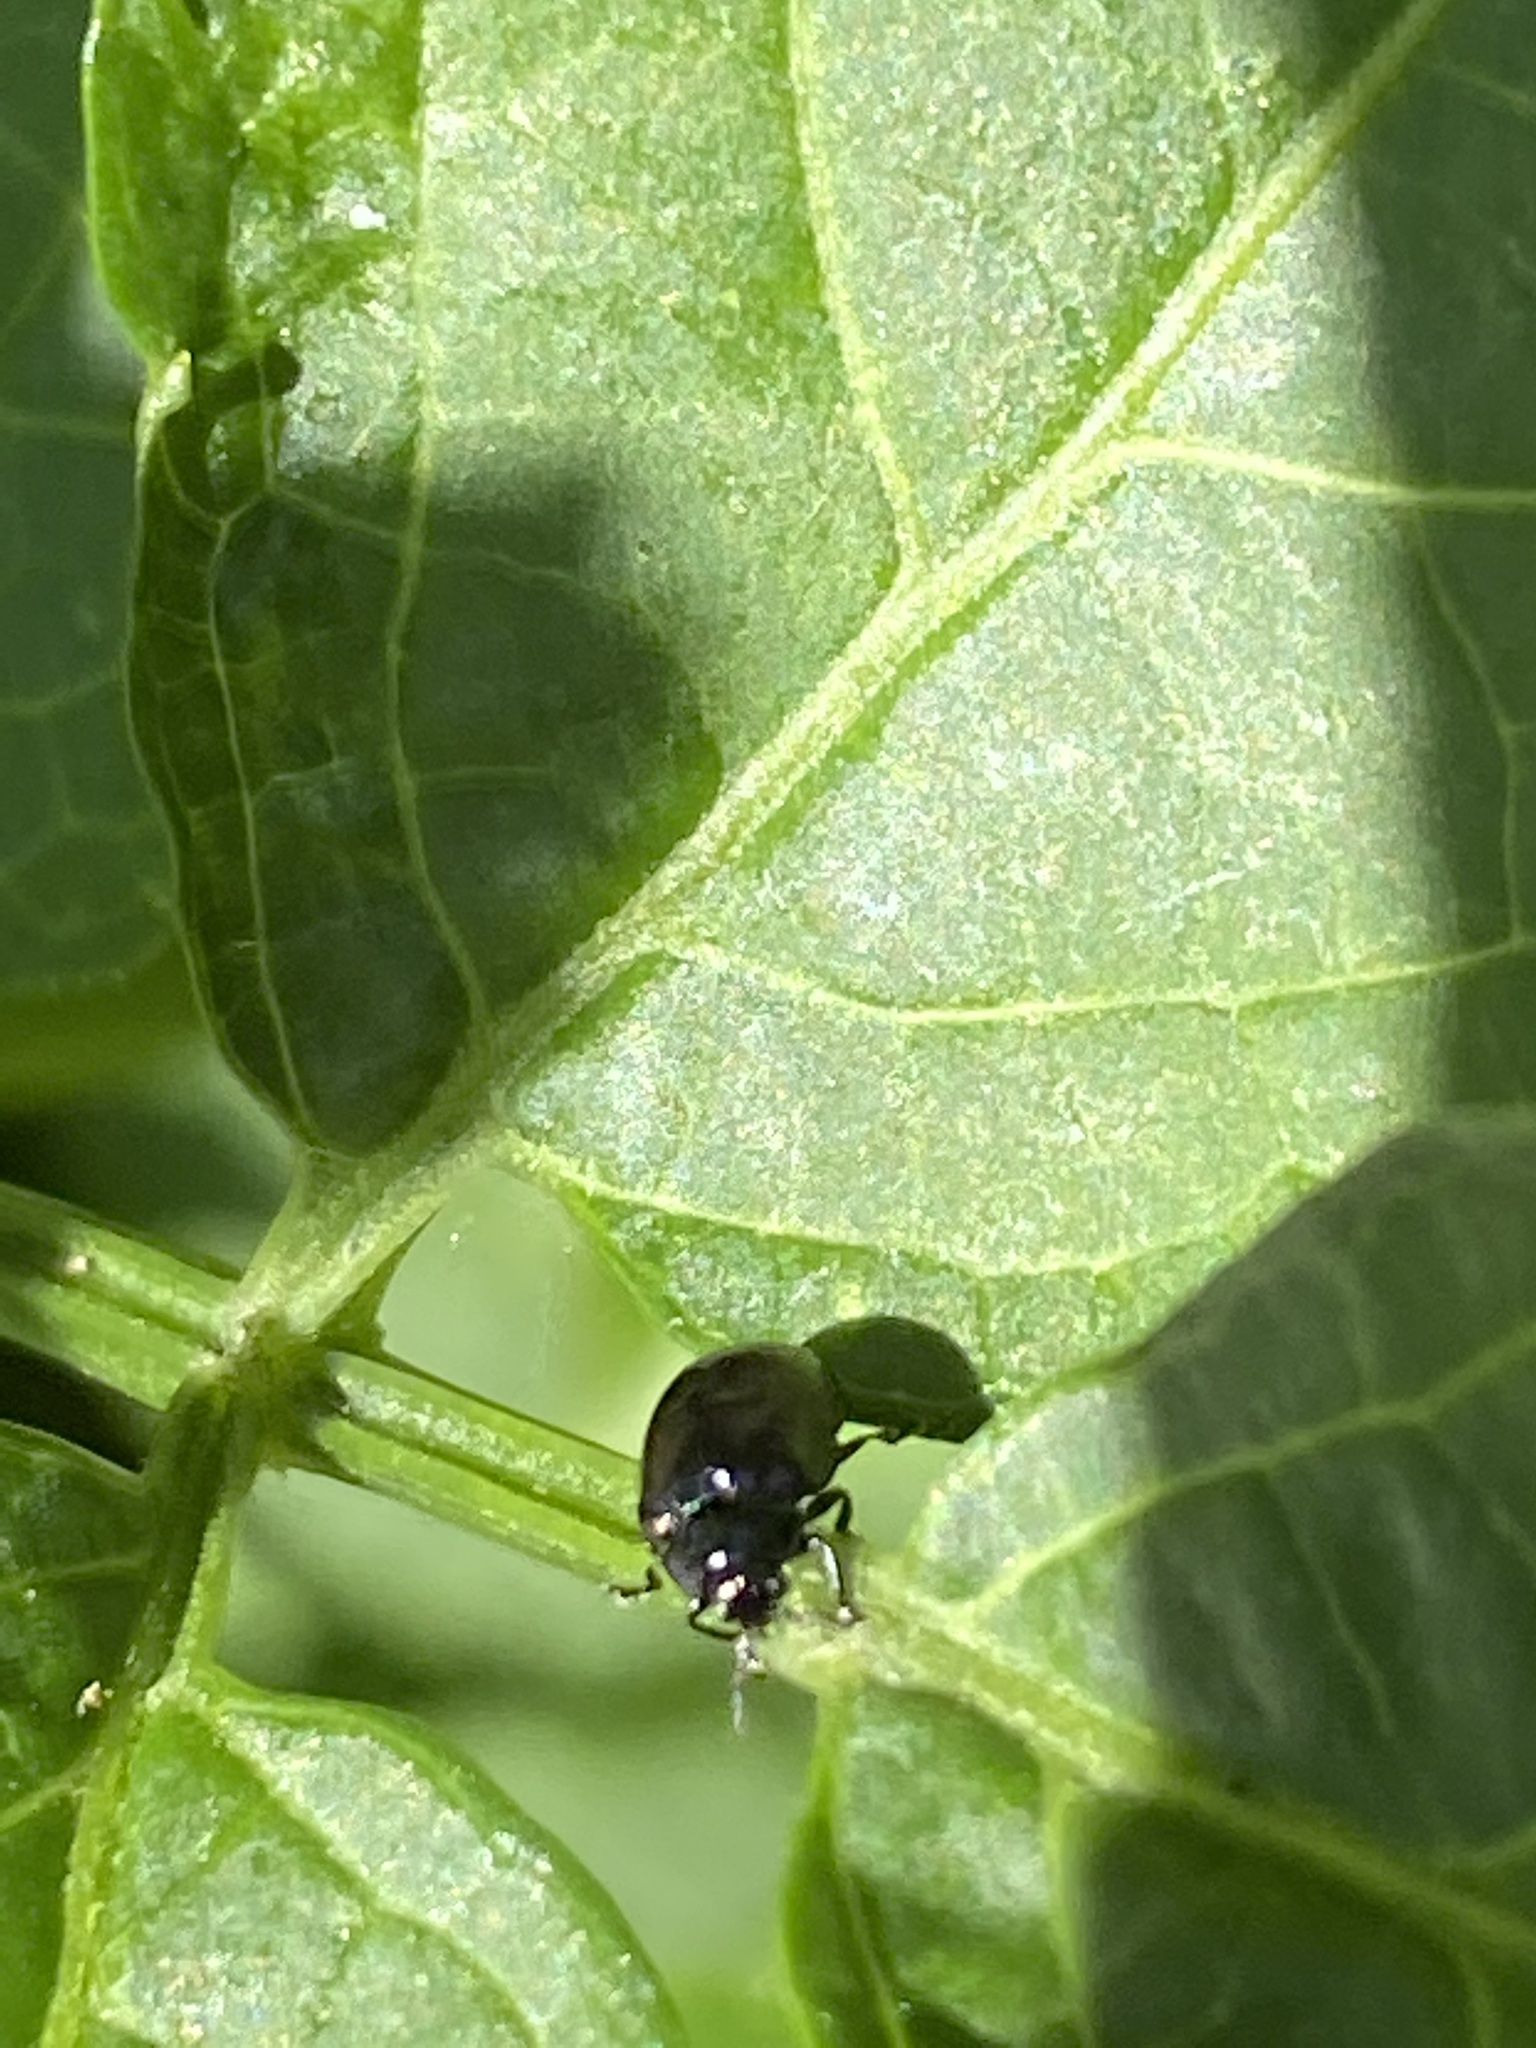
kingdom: Animalia
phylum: Arthropoda
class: Insecta
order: Coleoptera
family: Chrysomelidae
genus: Plagiodera
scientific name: Plagiodera versicolora
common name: Imported willow leaf beetle
